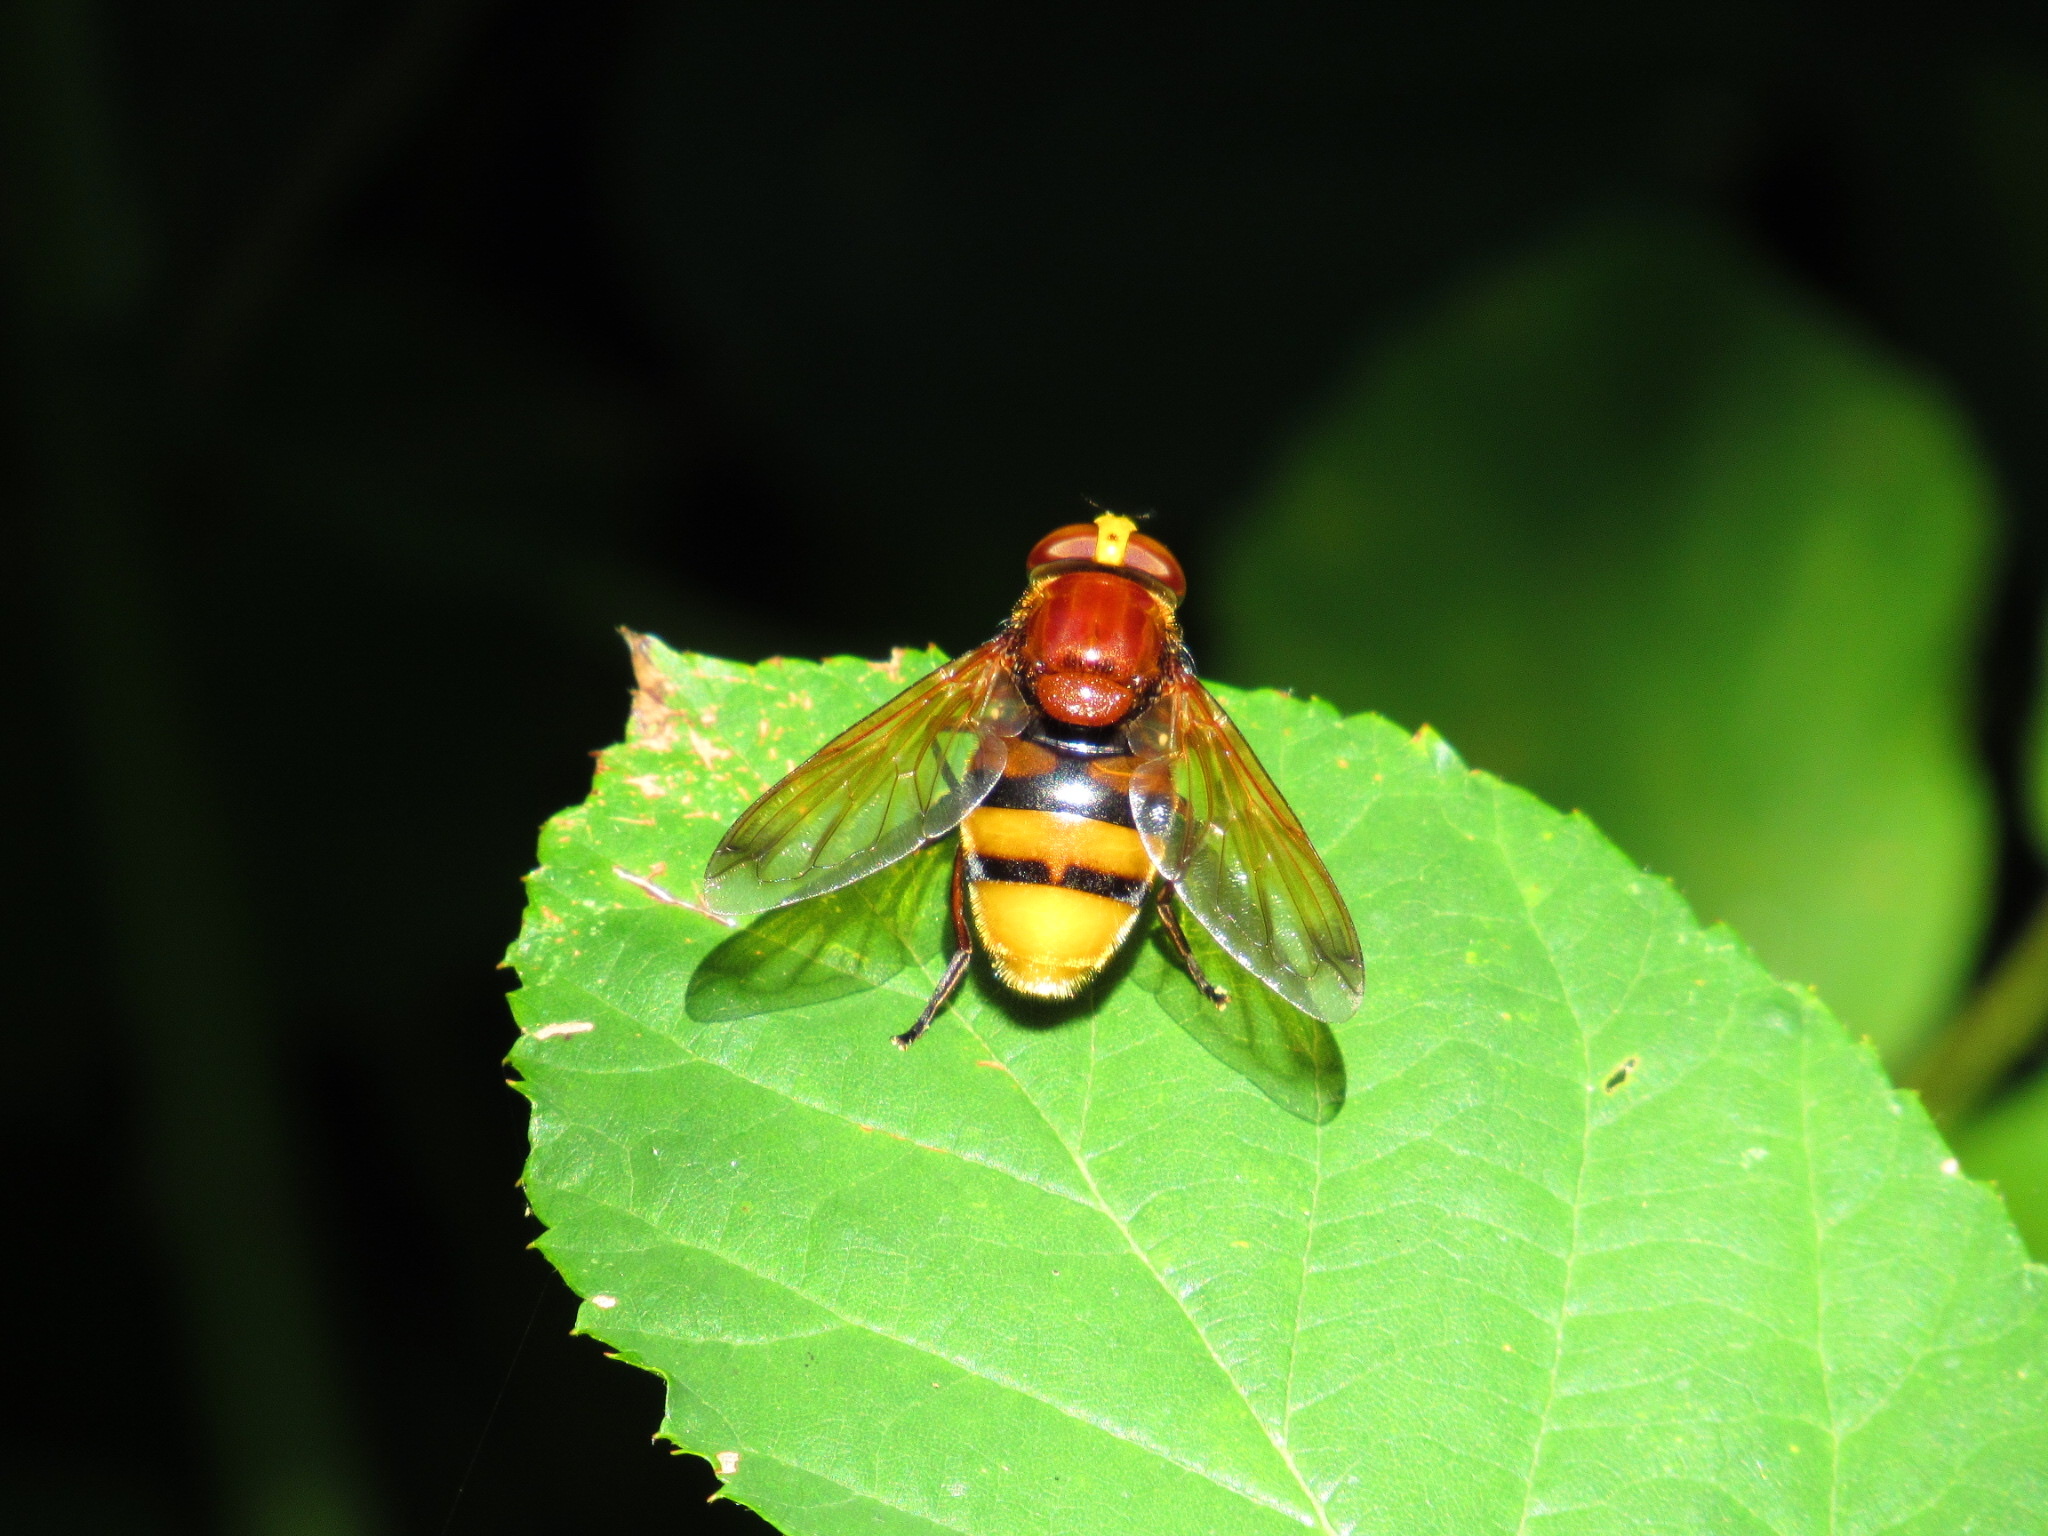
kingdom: Animalia
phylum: Arthropoda
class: Insecta
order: Diptera
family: Syrphidae
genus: Volucella
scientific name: Volucella zonaria
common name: Hornet hoverfly
